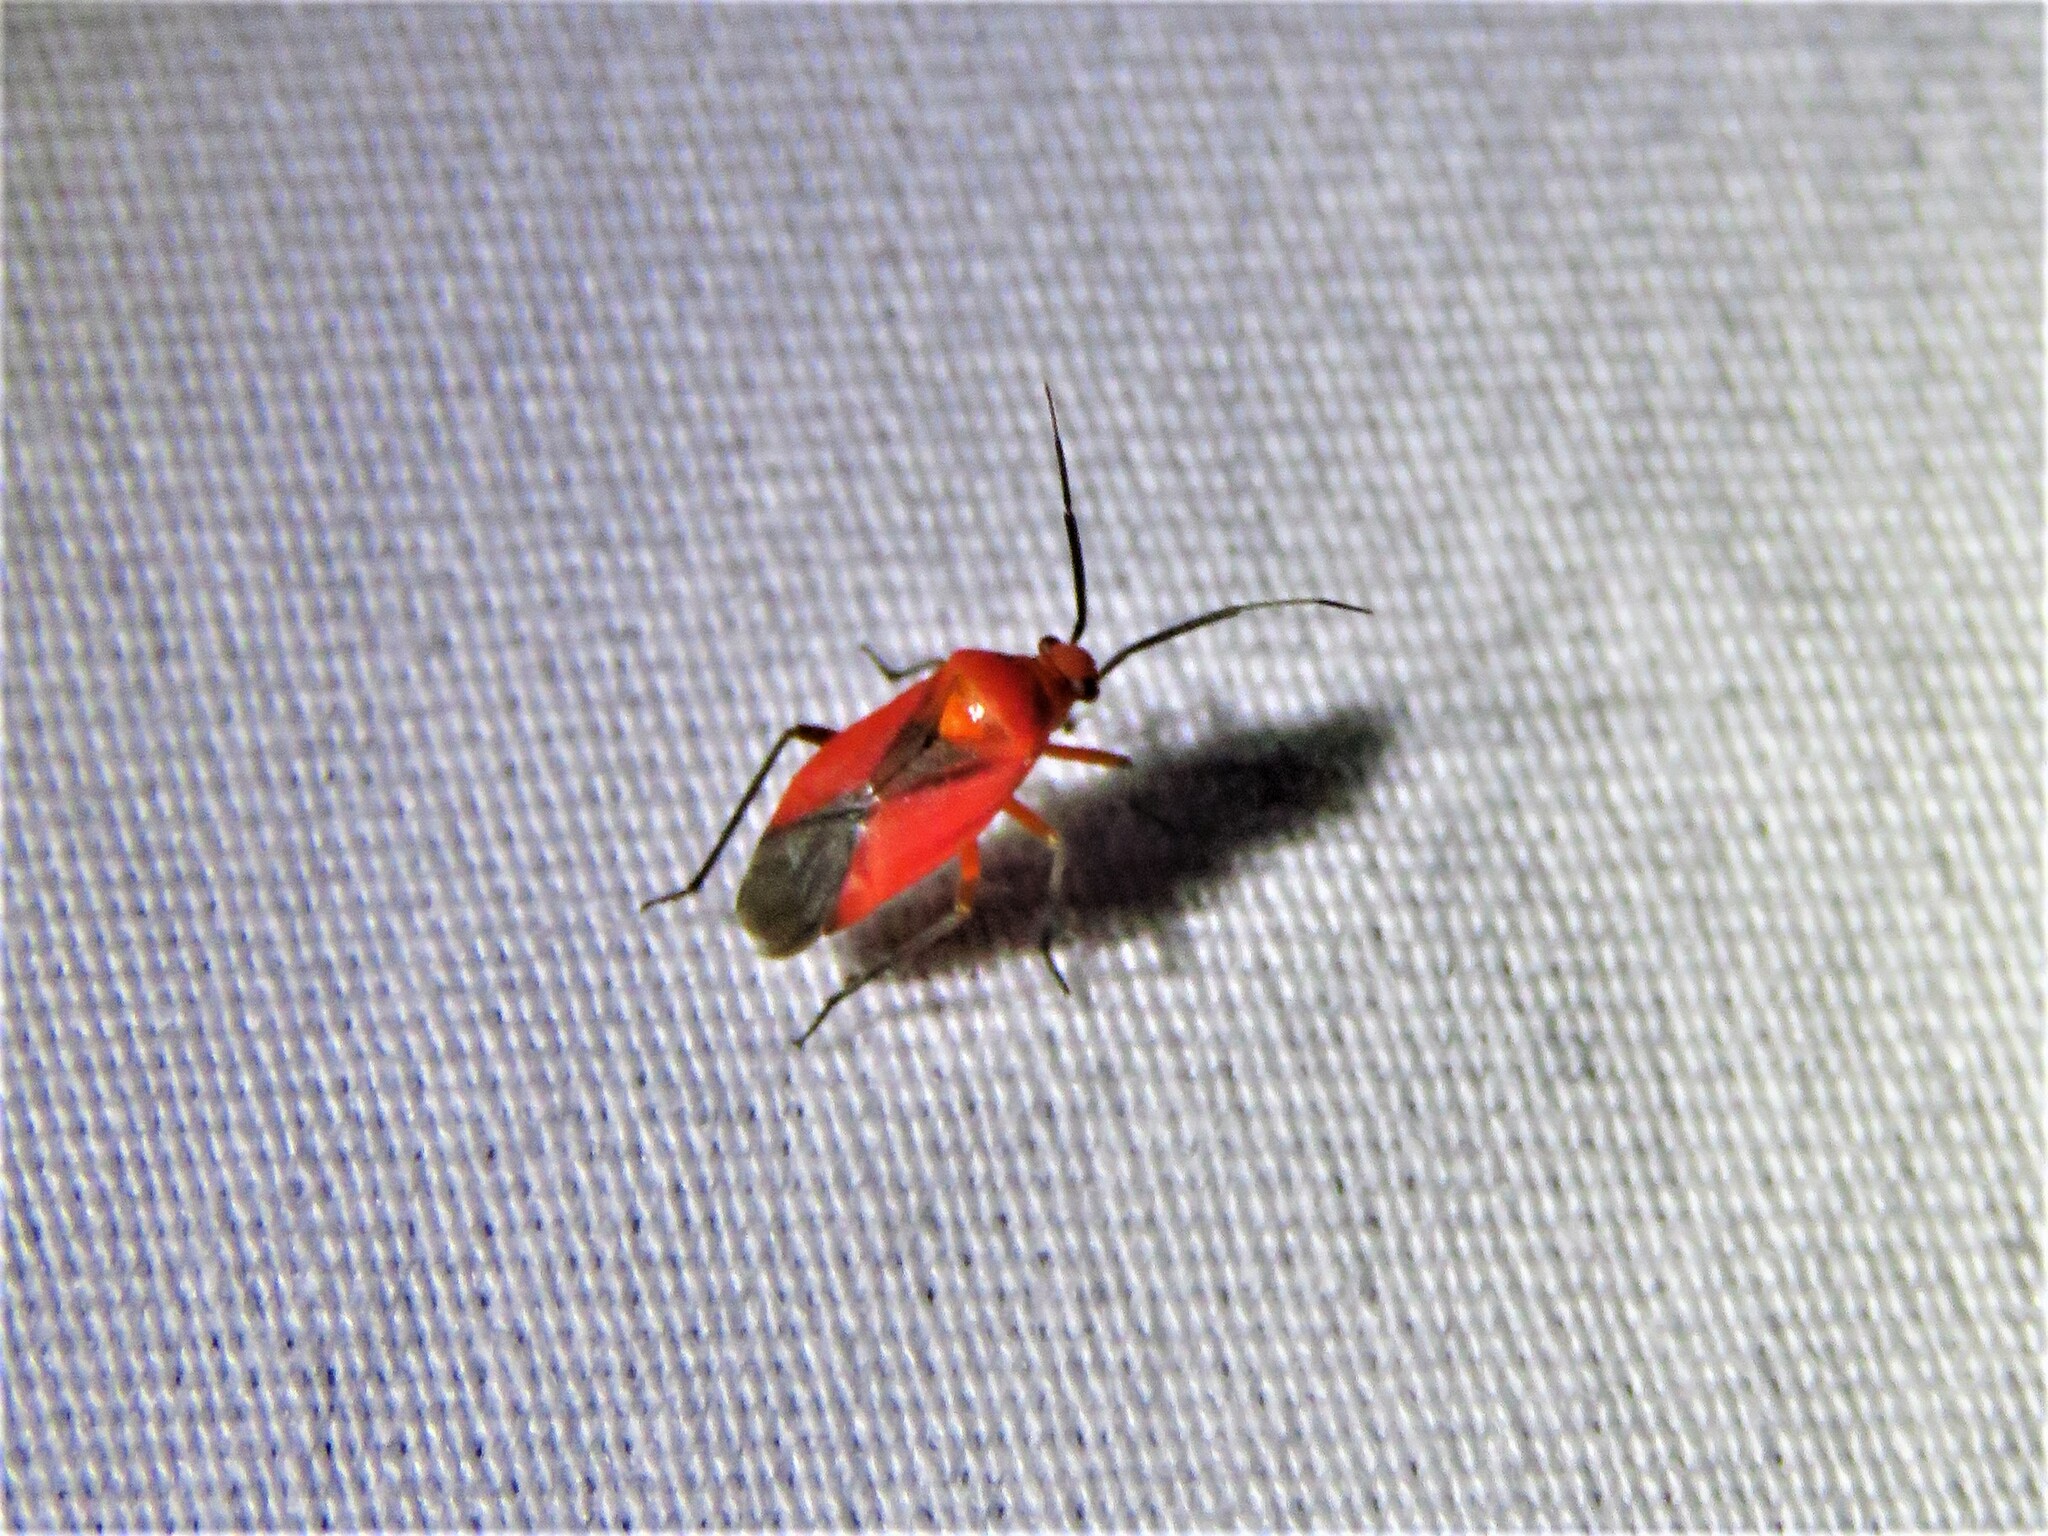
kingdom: Animalia
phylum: Arthropoda
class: Insecta
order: Hemiptera
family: Miridae
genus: Oncerometopus
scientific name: Oncerometopus nigriclavus
